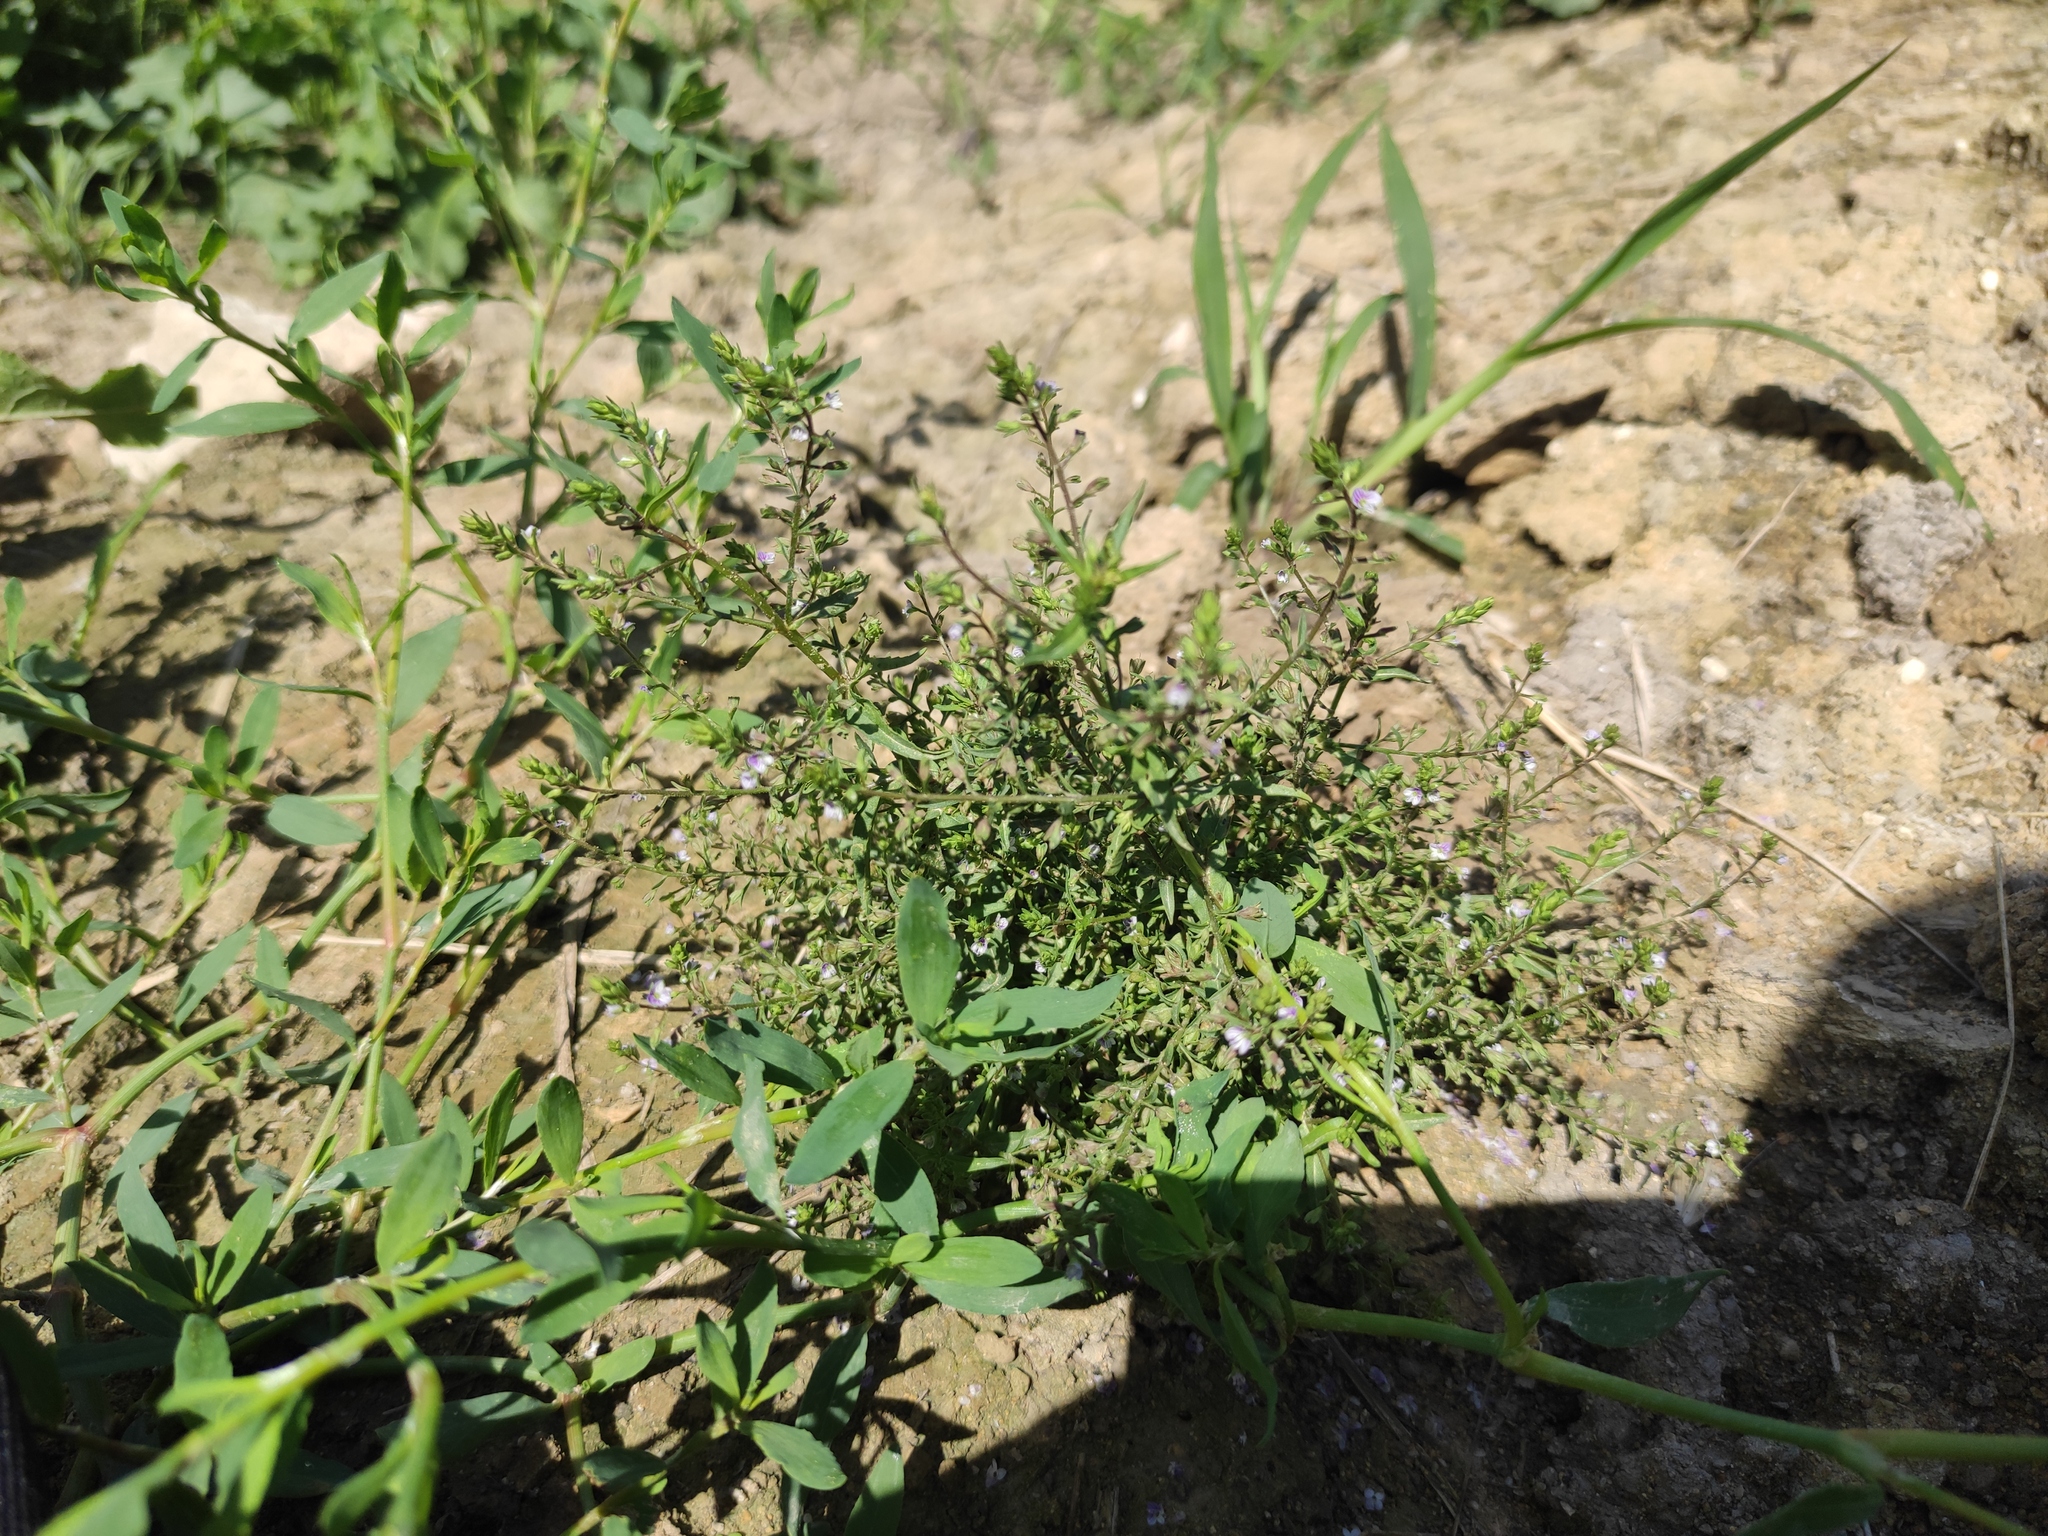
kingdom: Plantae
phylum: Tracheophyta
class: Magnoliopsida
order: Lamiales
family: Plantaginaceae
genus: Veronica
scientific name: Veronica anagalloides
